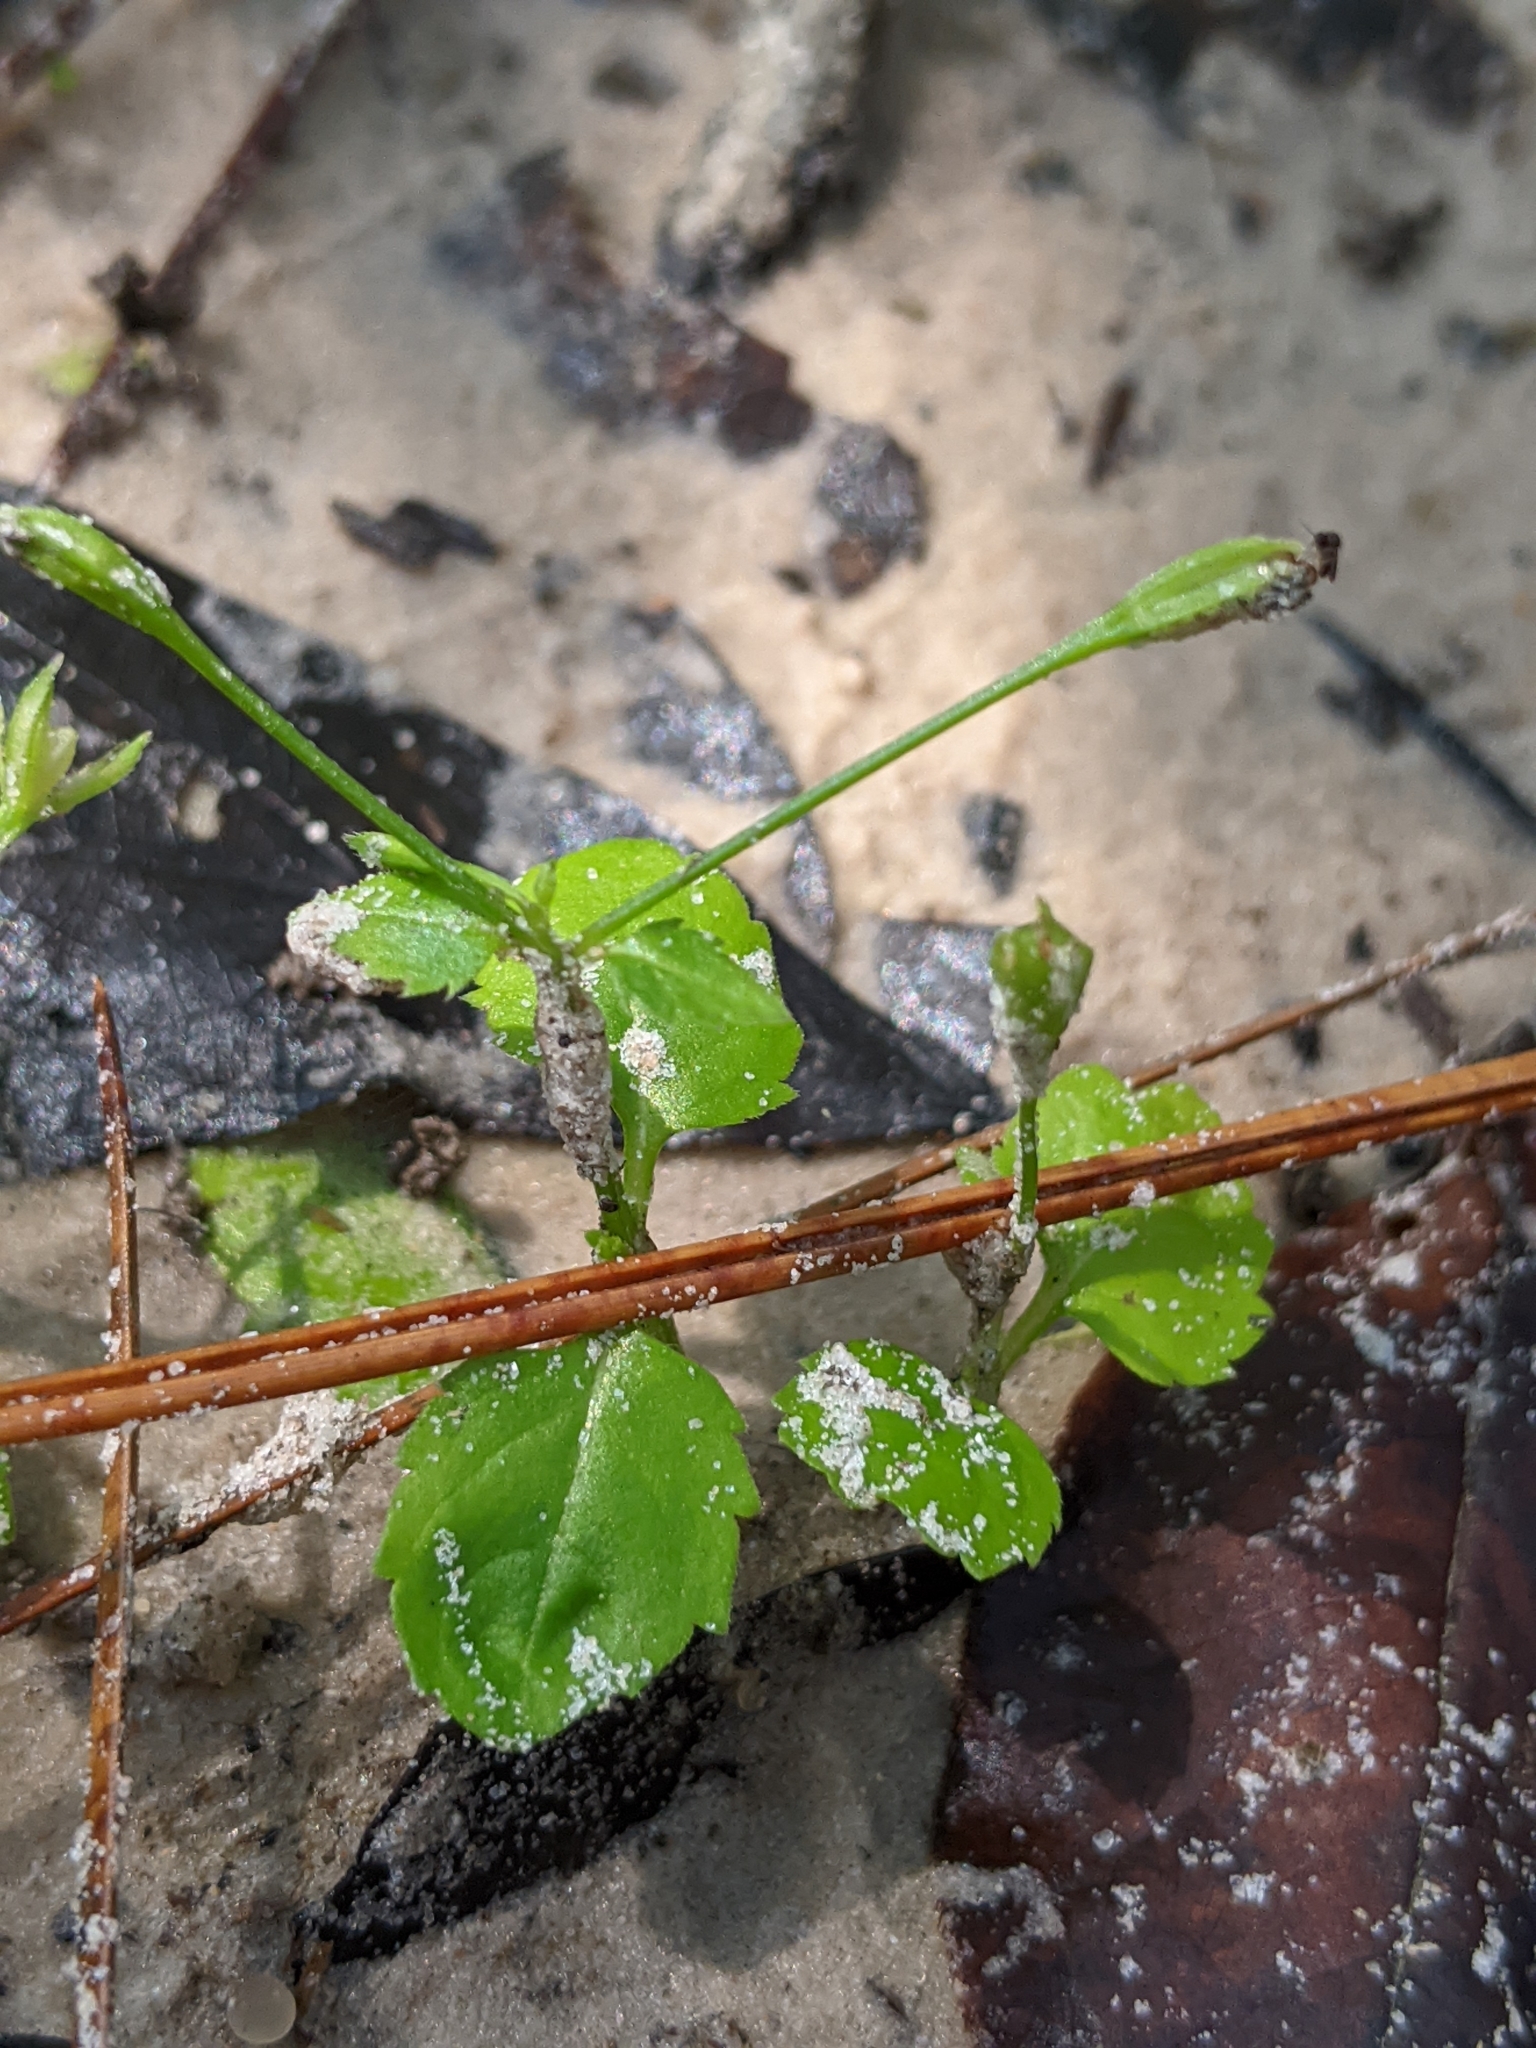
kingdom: Plantae
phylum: Tracheophyta
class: Magnoliopsida
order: Lamiales
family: Linderniaceae
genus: Torenia
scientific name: Torenia crustacea
